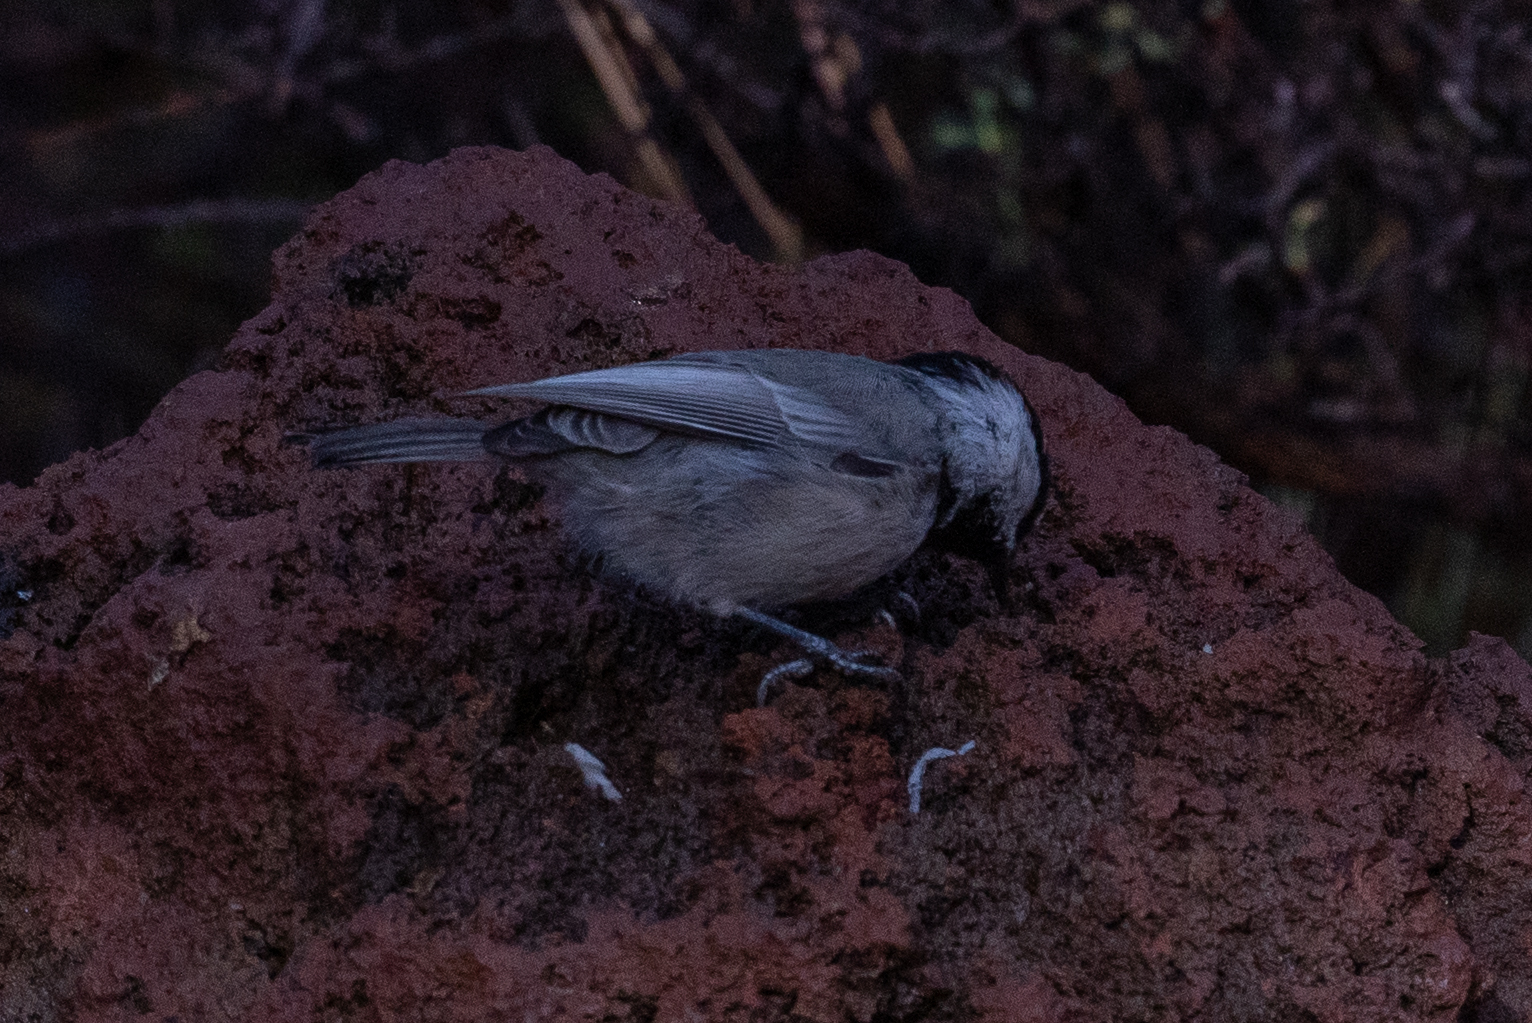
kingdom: Animalia
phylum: Chordata
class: Aves
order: Passeriformes
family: Paridae
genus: Poecile
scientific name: Poecile gambeli
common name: Mountain chickadee
